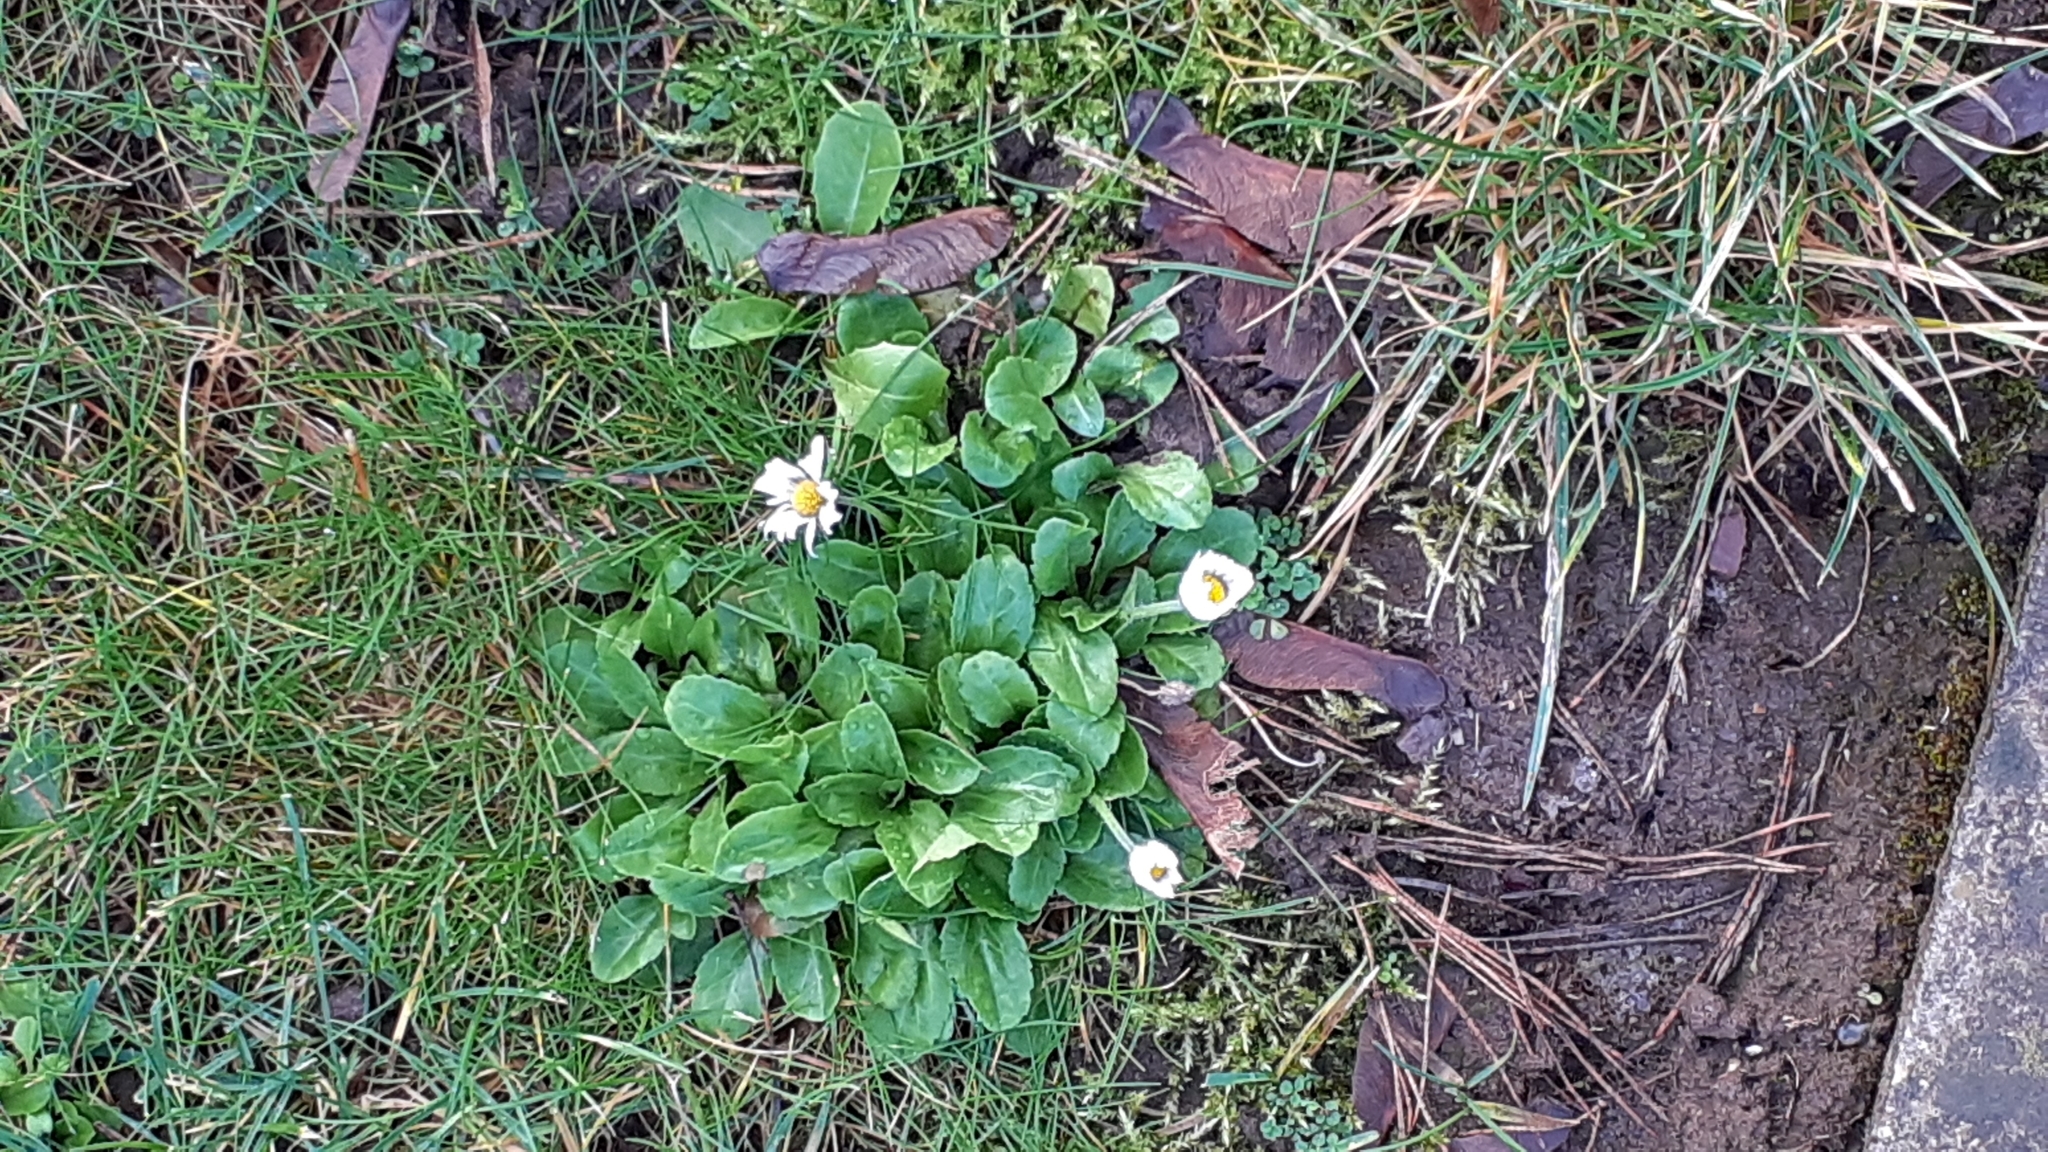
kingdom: Plantae
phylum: Tracheophyta
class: Magnoliopsida
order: Asterales
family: Asteraceae
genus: Bellis
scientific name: Bellis perennis
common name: Lawndaisy
